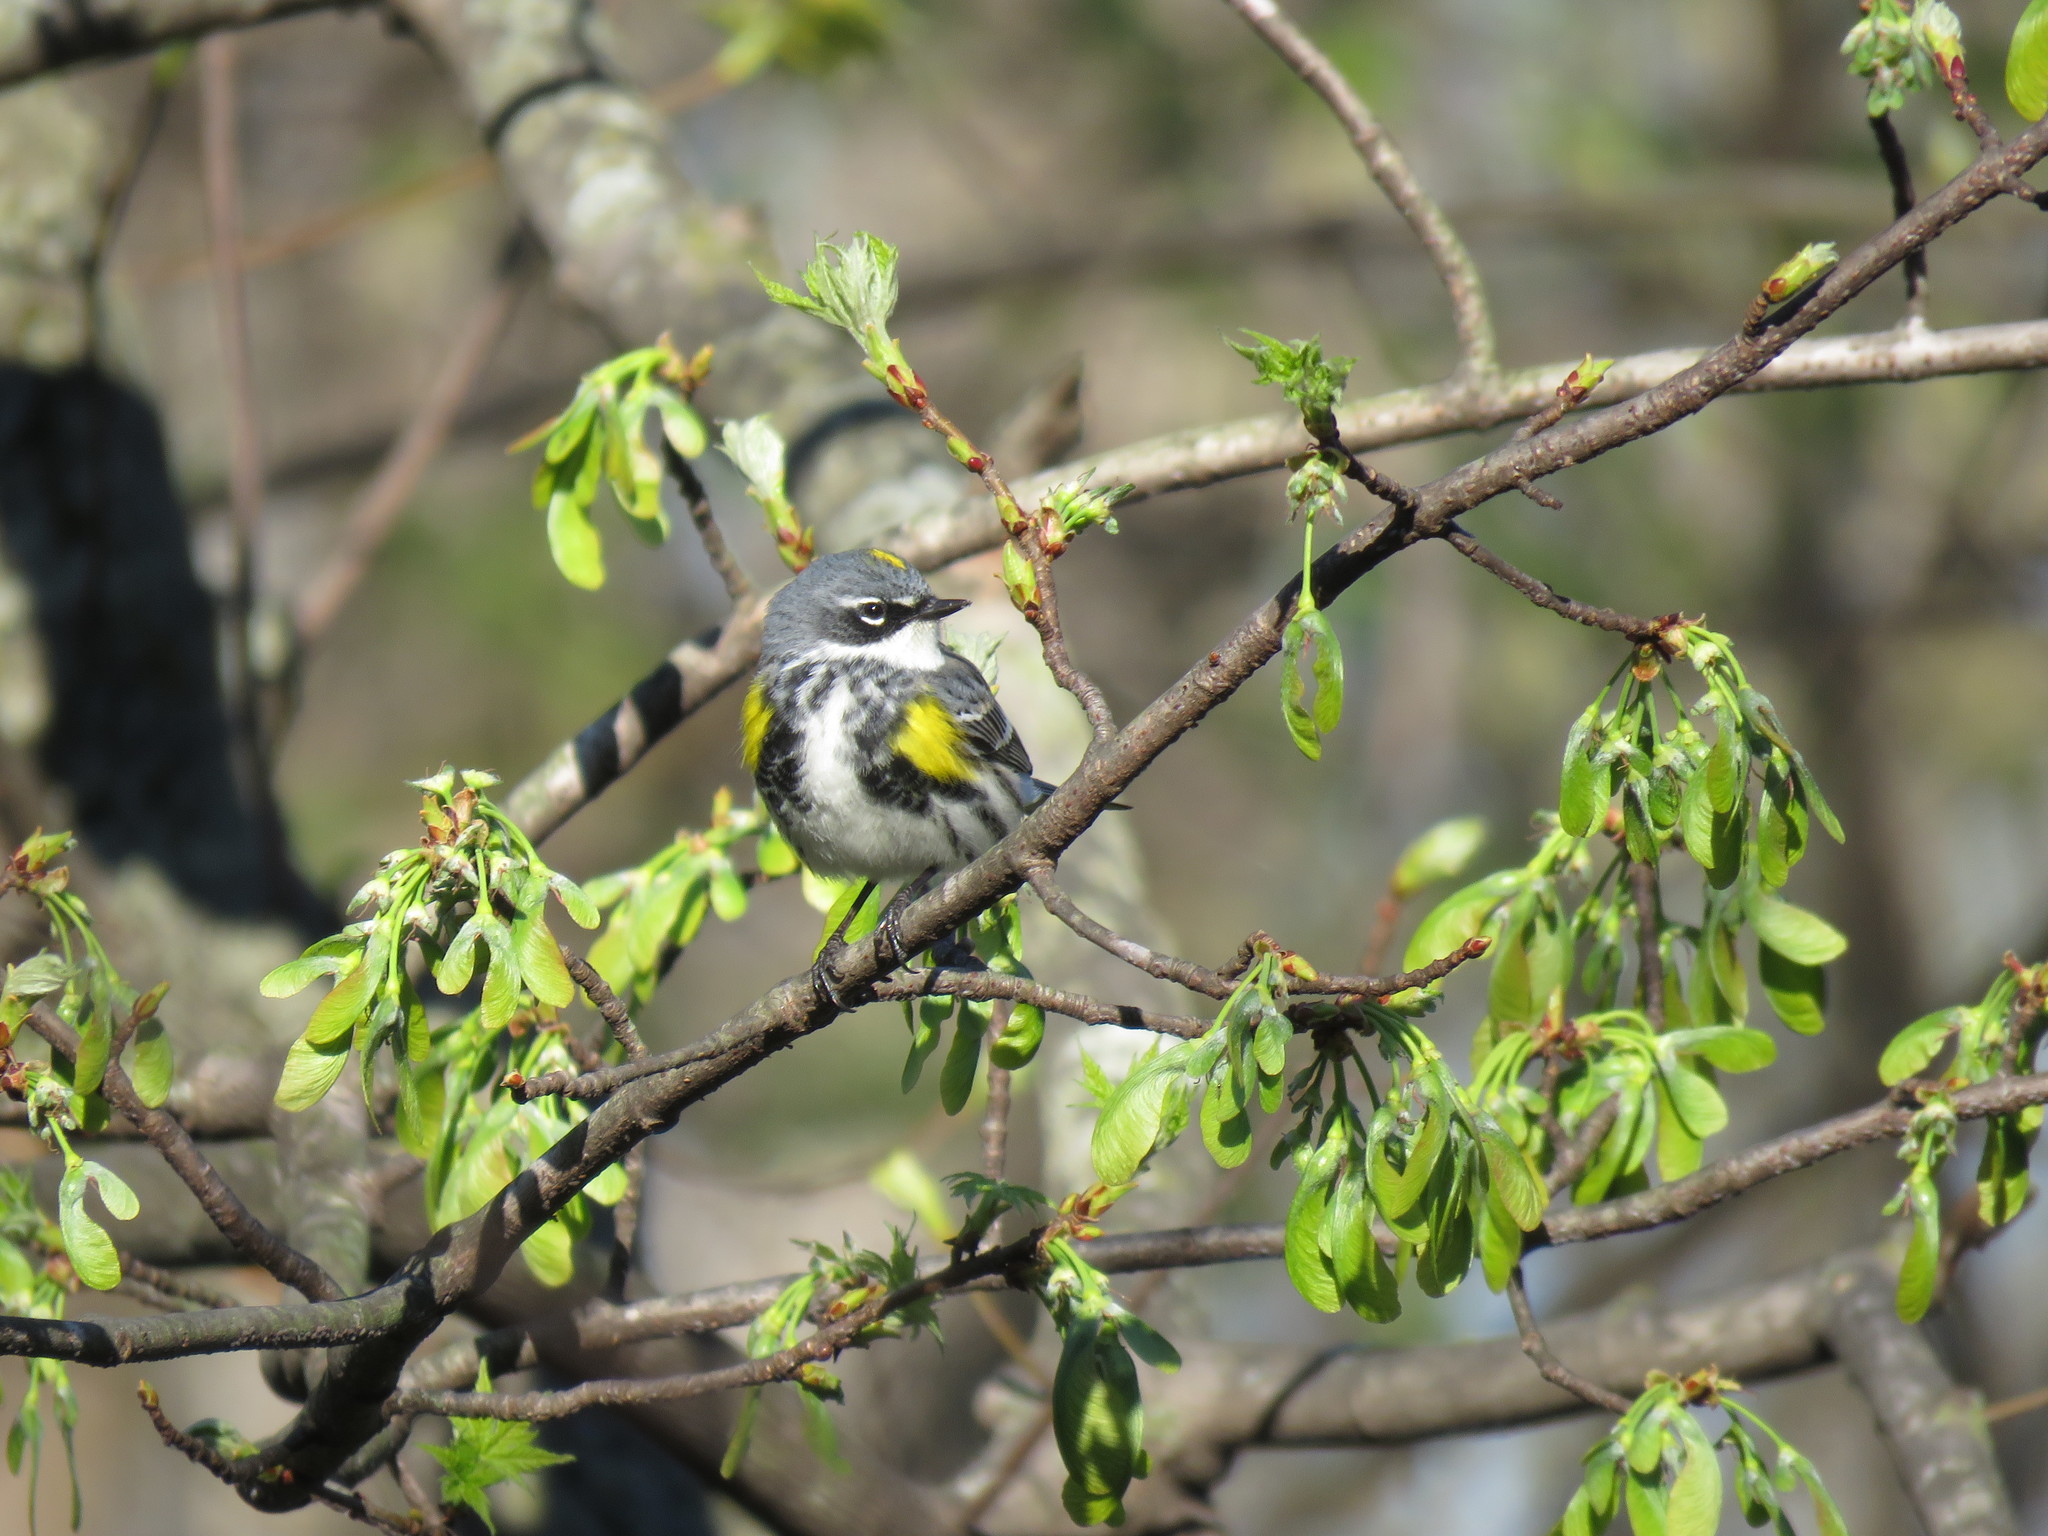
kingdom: Animalia
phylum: Chordata
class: Aves
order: Passeriformes
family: Parulidae
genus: Setophaga
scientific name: Setophaga coronata
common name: Myrtle warbler
